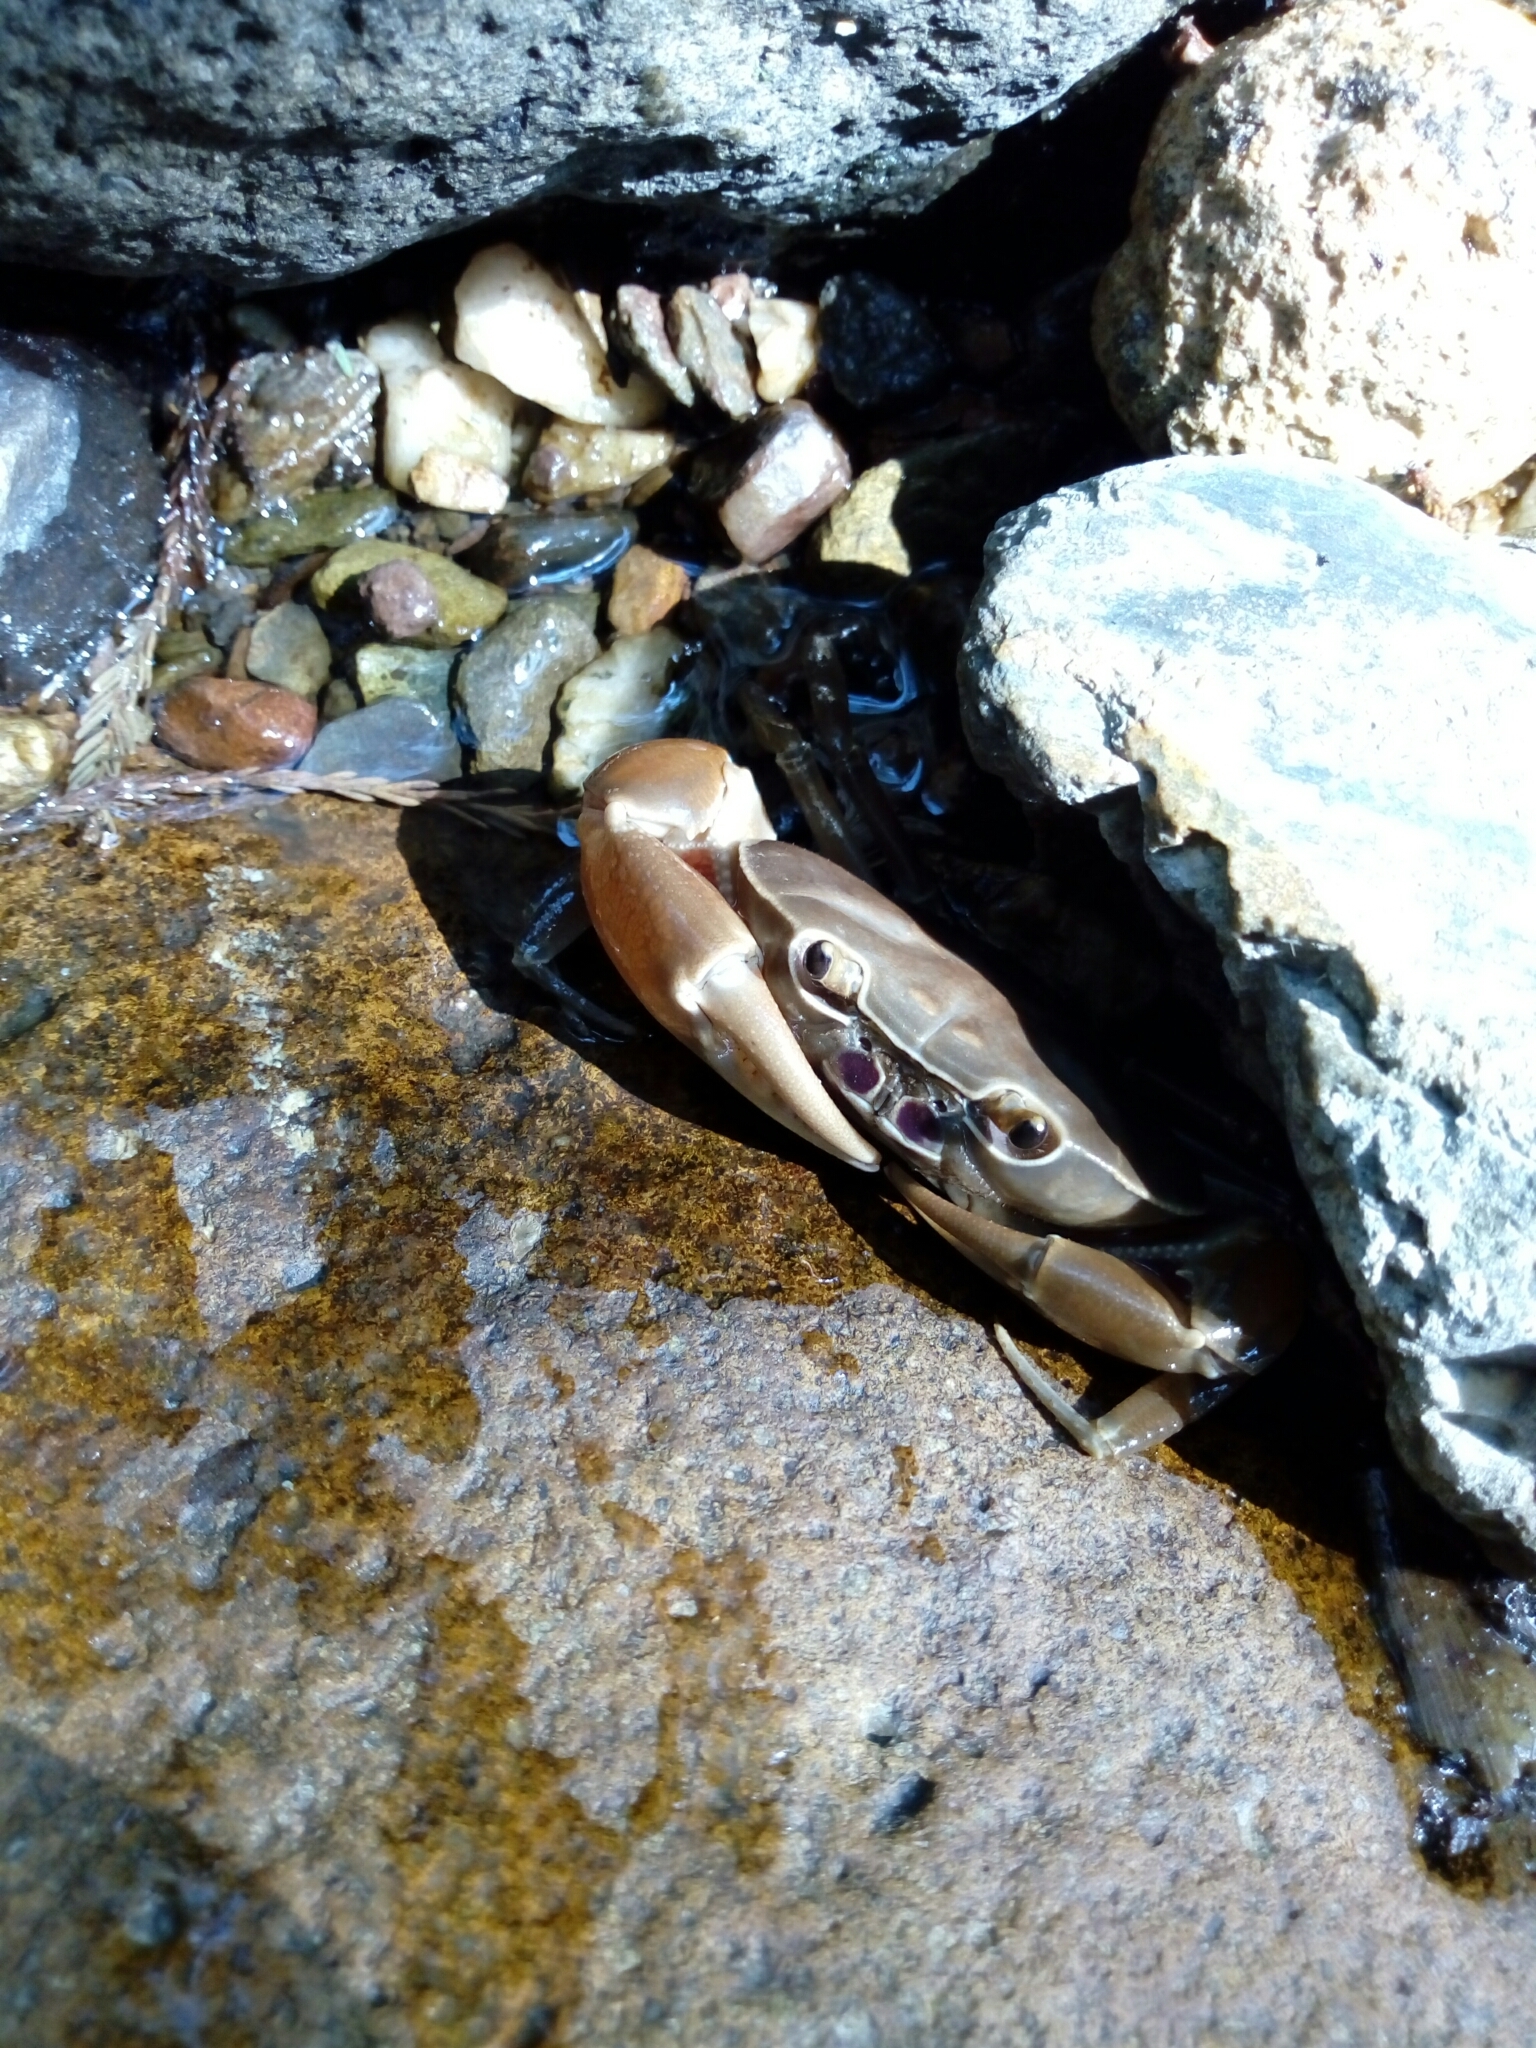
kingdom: Animalia
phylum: Arthropoda
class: Malacostraca
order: Decapoda
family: Pseudothelphusidae
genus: Pseudothelphusa
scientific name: Pseudothelphusa morelosis
